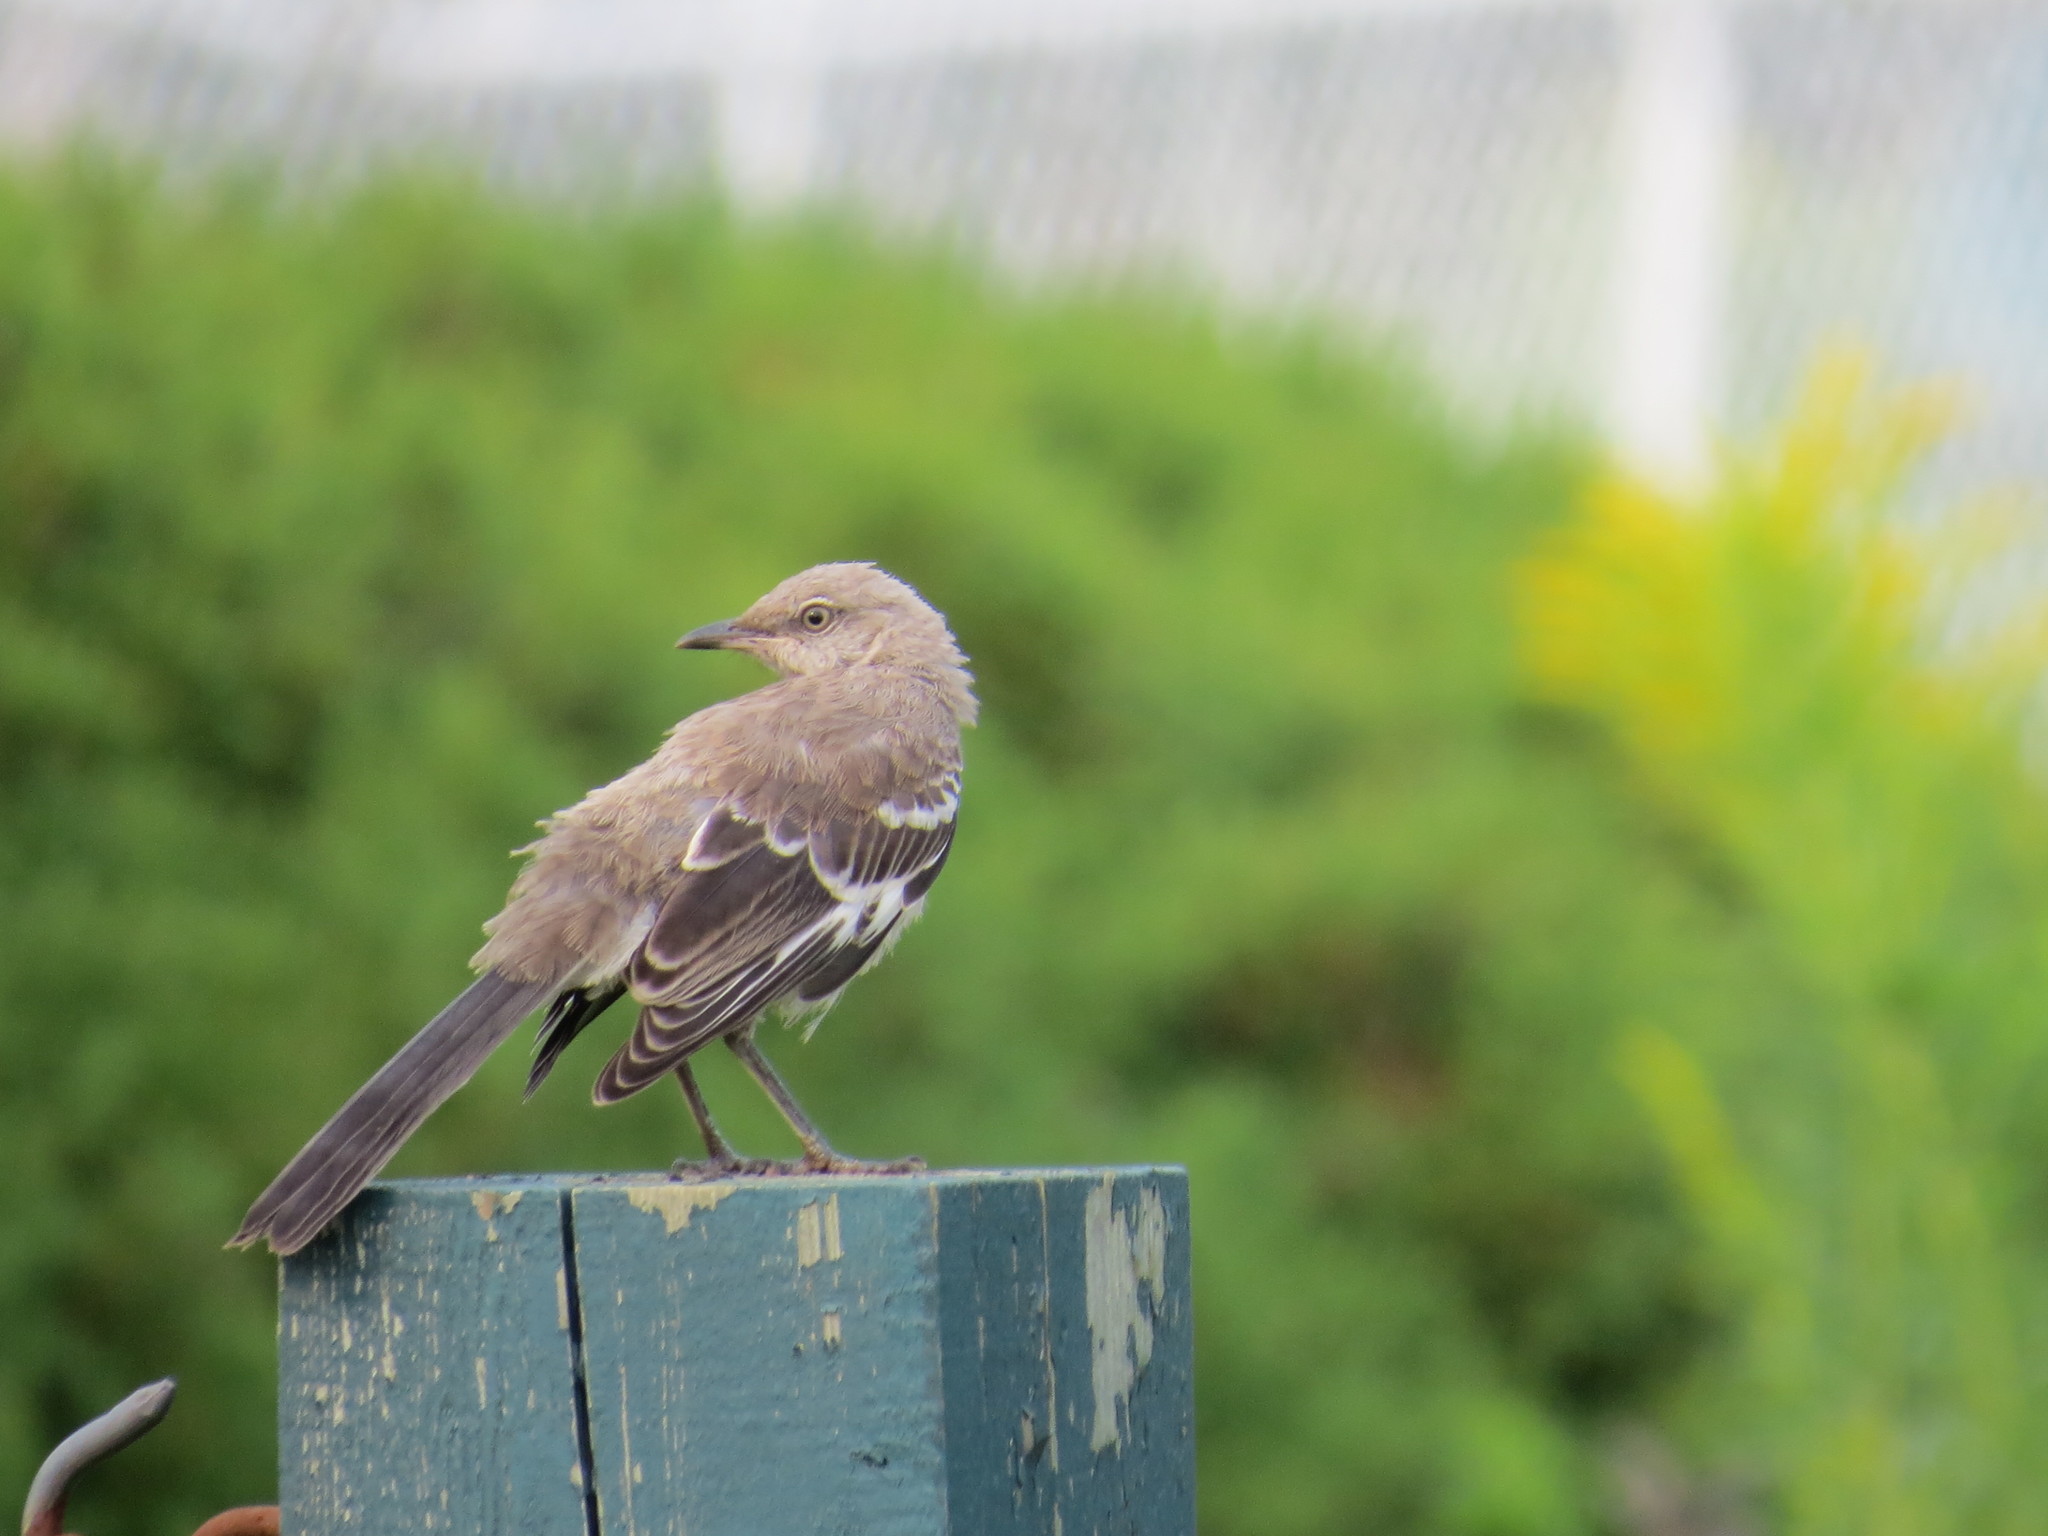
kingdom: Animalia
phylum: Chordata
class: Aves
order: Passeriformes
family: Mimidae
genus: Mimus
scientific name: Mimus polyglottos
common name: Northern mockingbird
